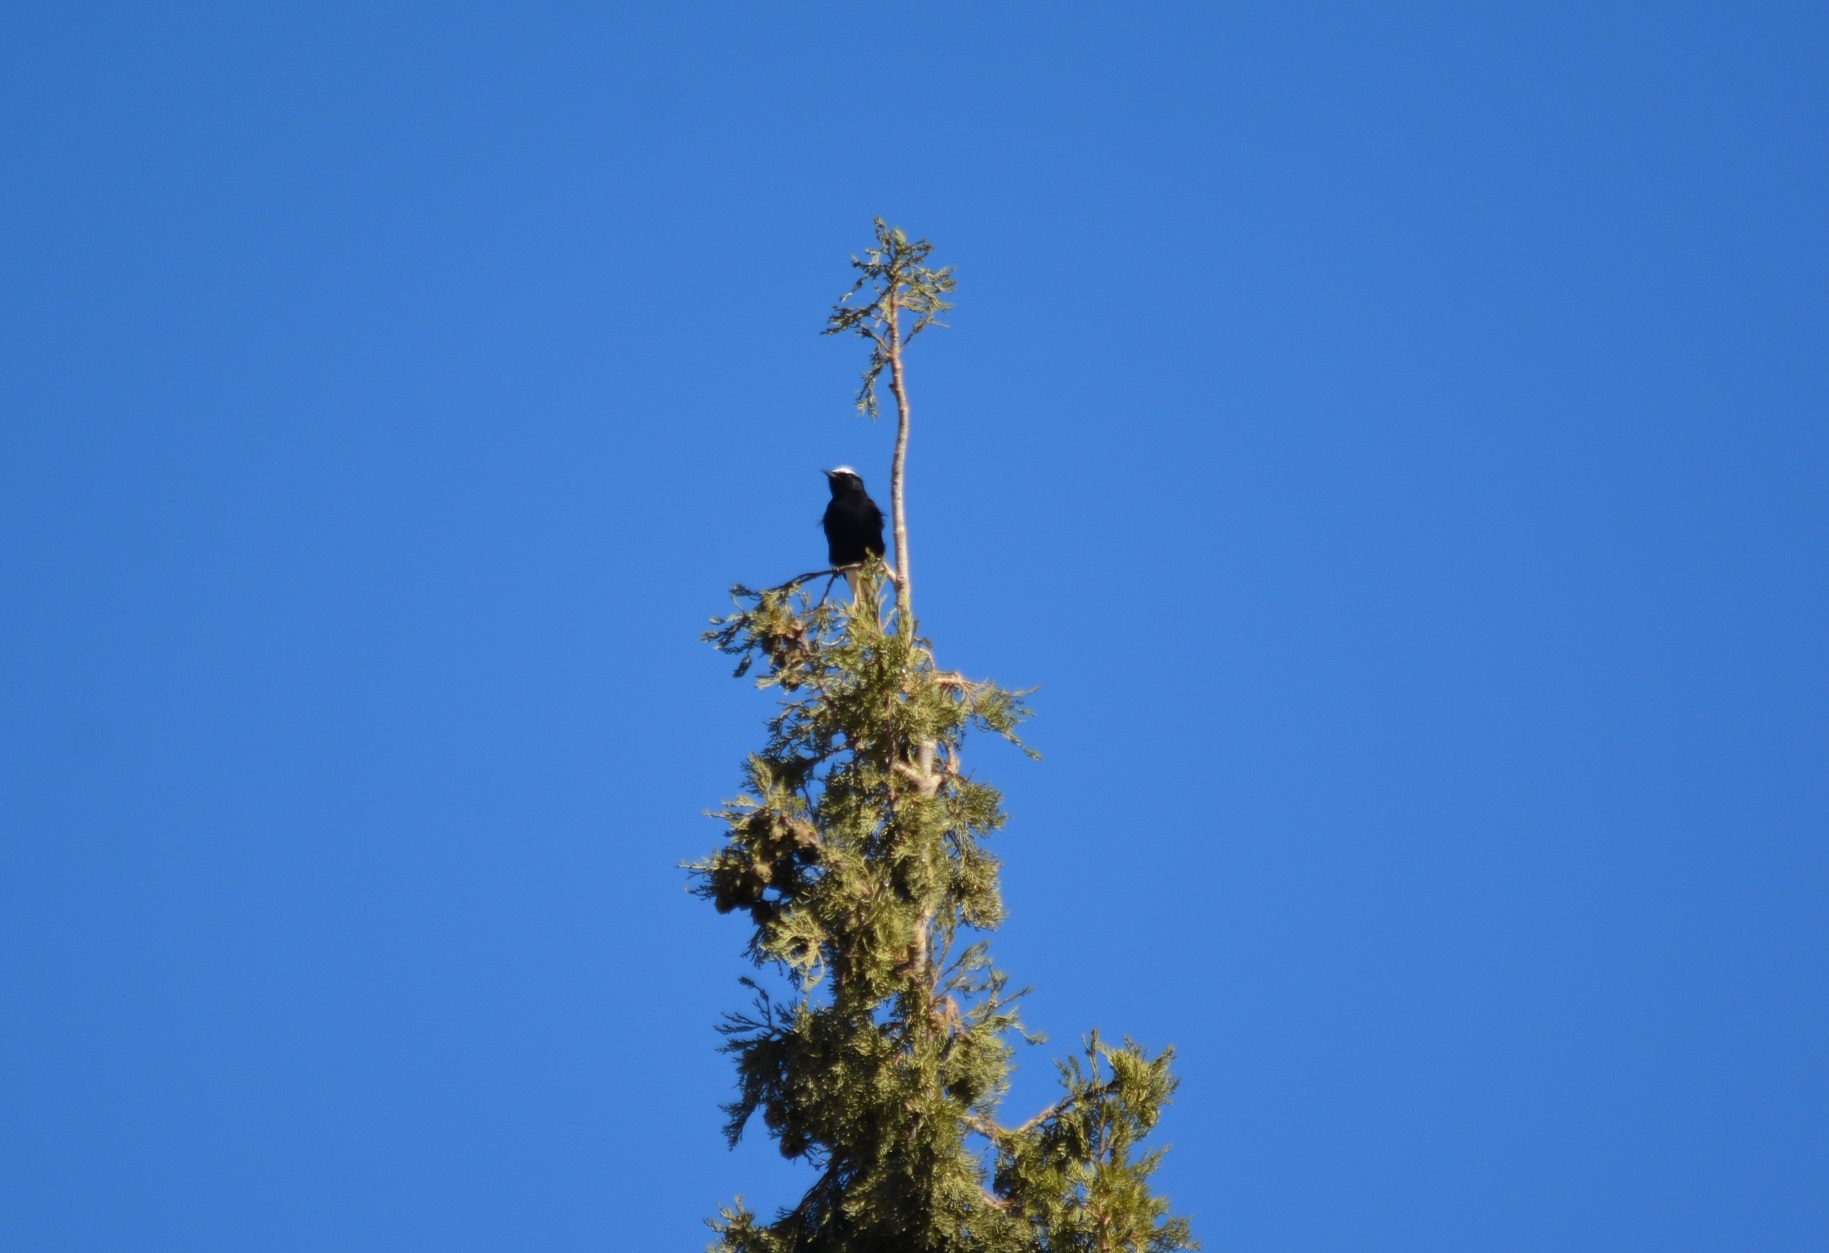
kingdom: Animalia
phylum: Chordata
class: Aves
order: Passeriformes
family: Muscicapidae
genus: Oenanthe
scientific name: Oenanthe leucopyga
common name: White-crowned wheatear
